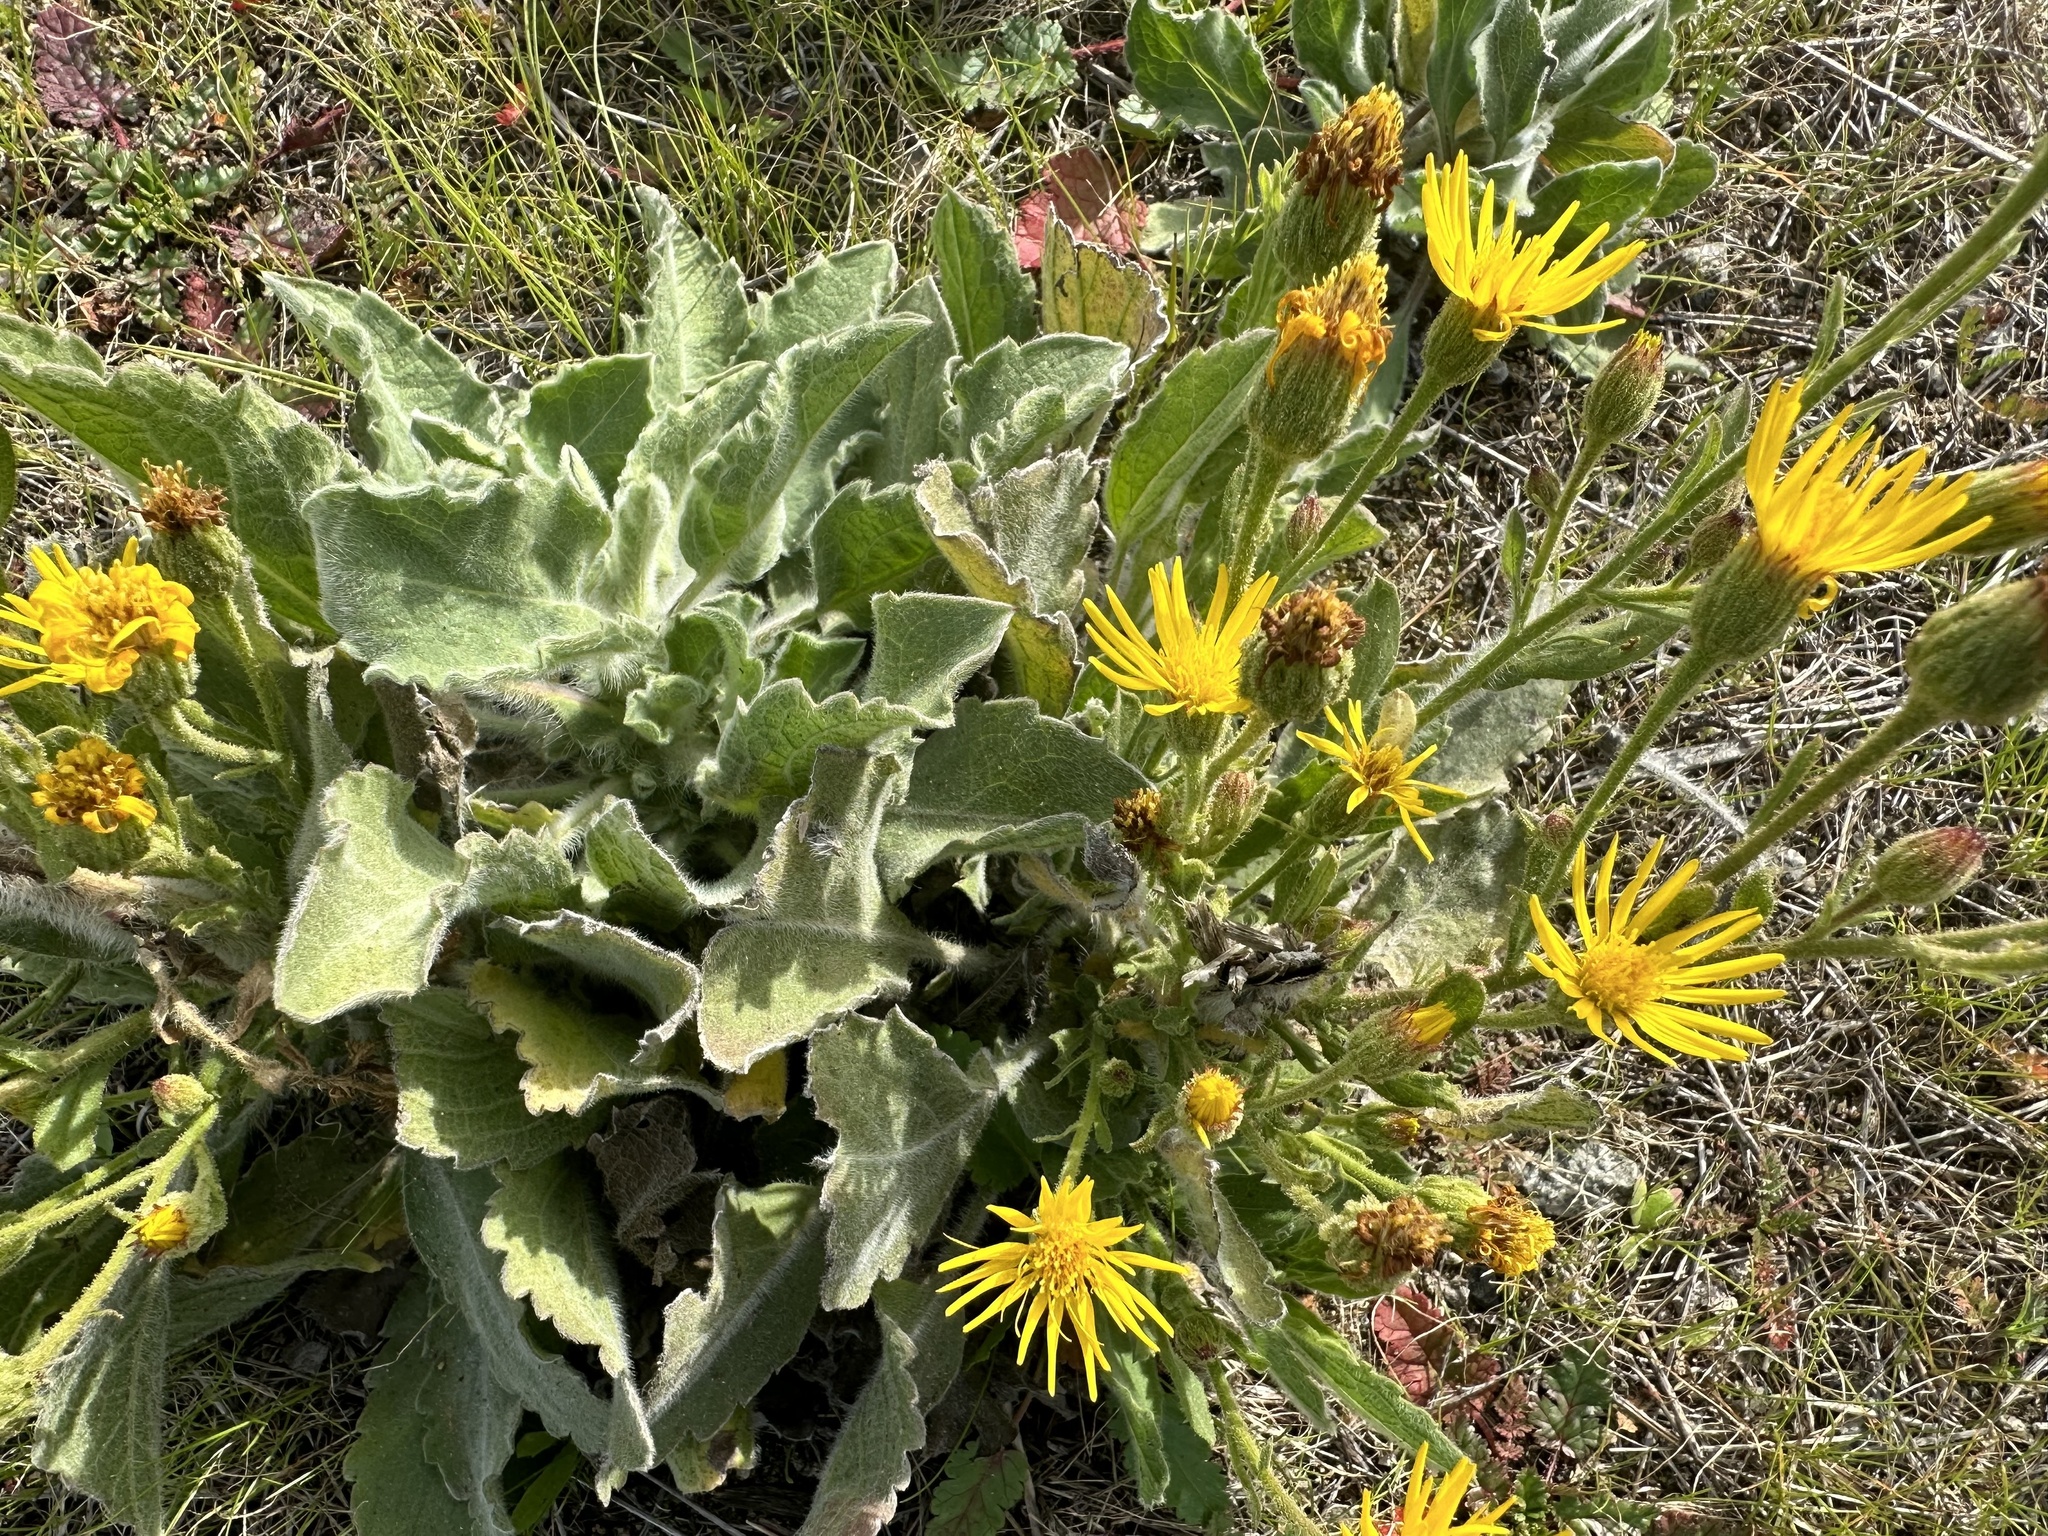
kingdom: Plantae
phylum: Tracheophyta
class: Magnoliopsida
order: Asterales
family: Asteraceae
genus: Heterotheca
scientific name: Heterotheca grandiflora
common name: Telegraphweed
